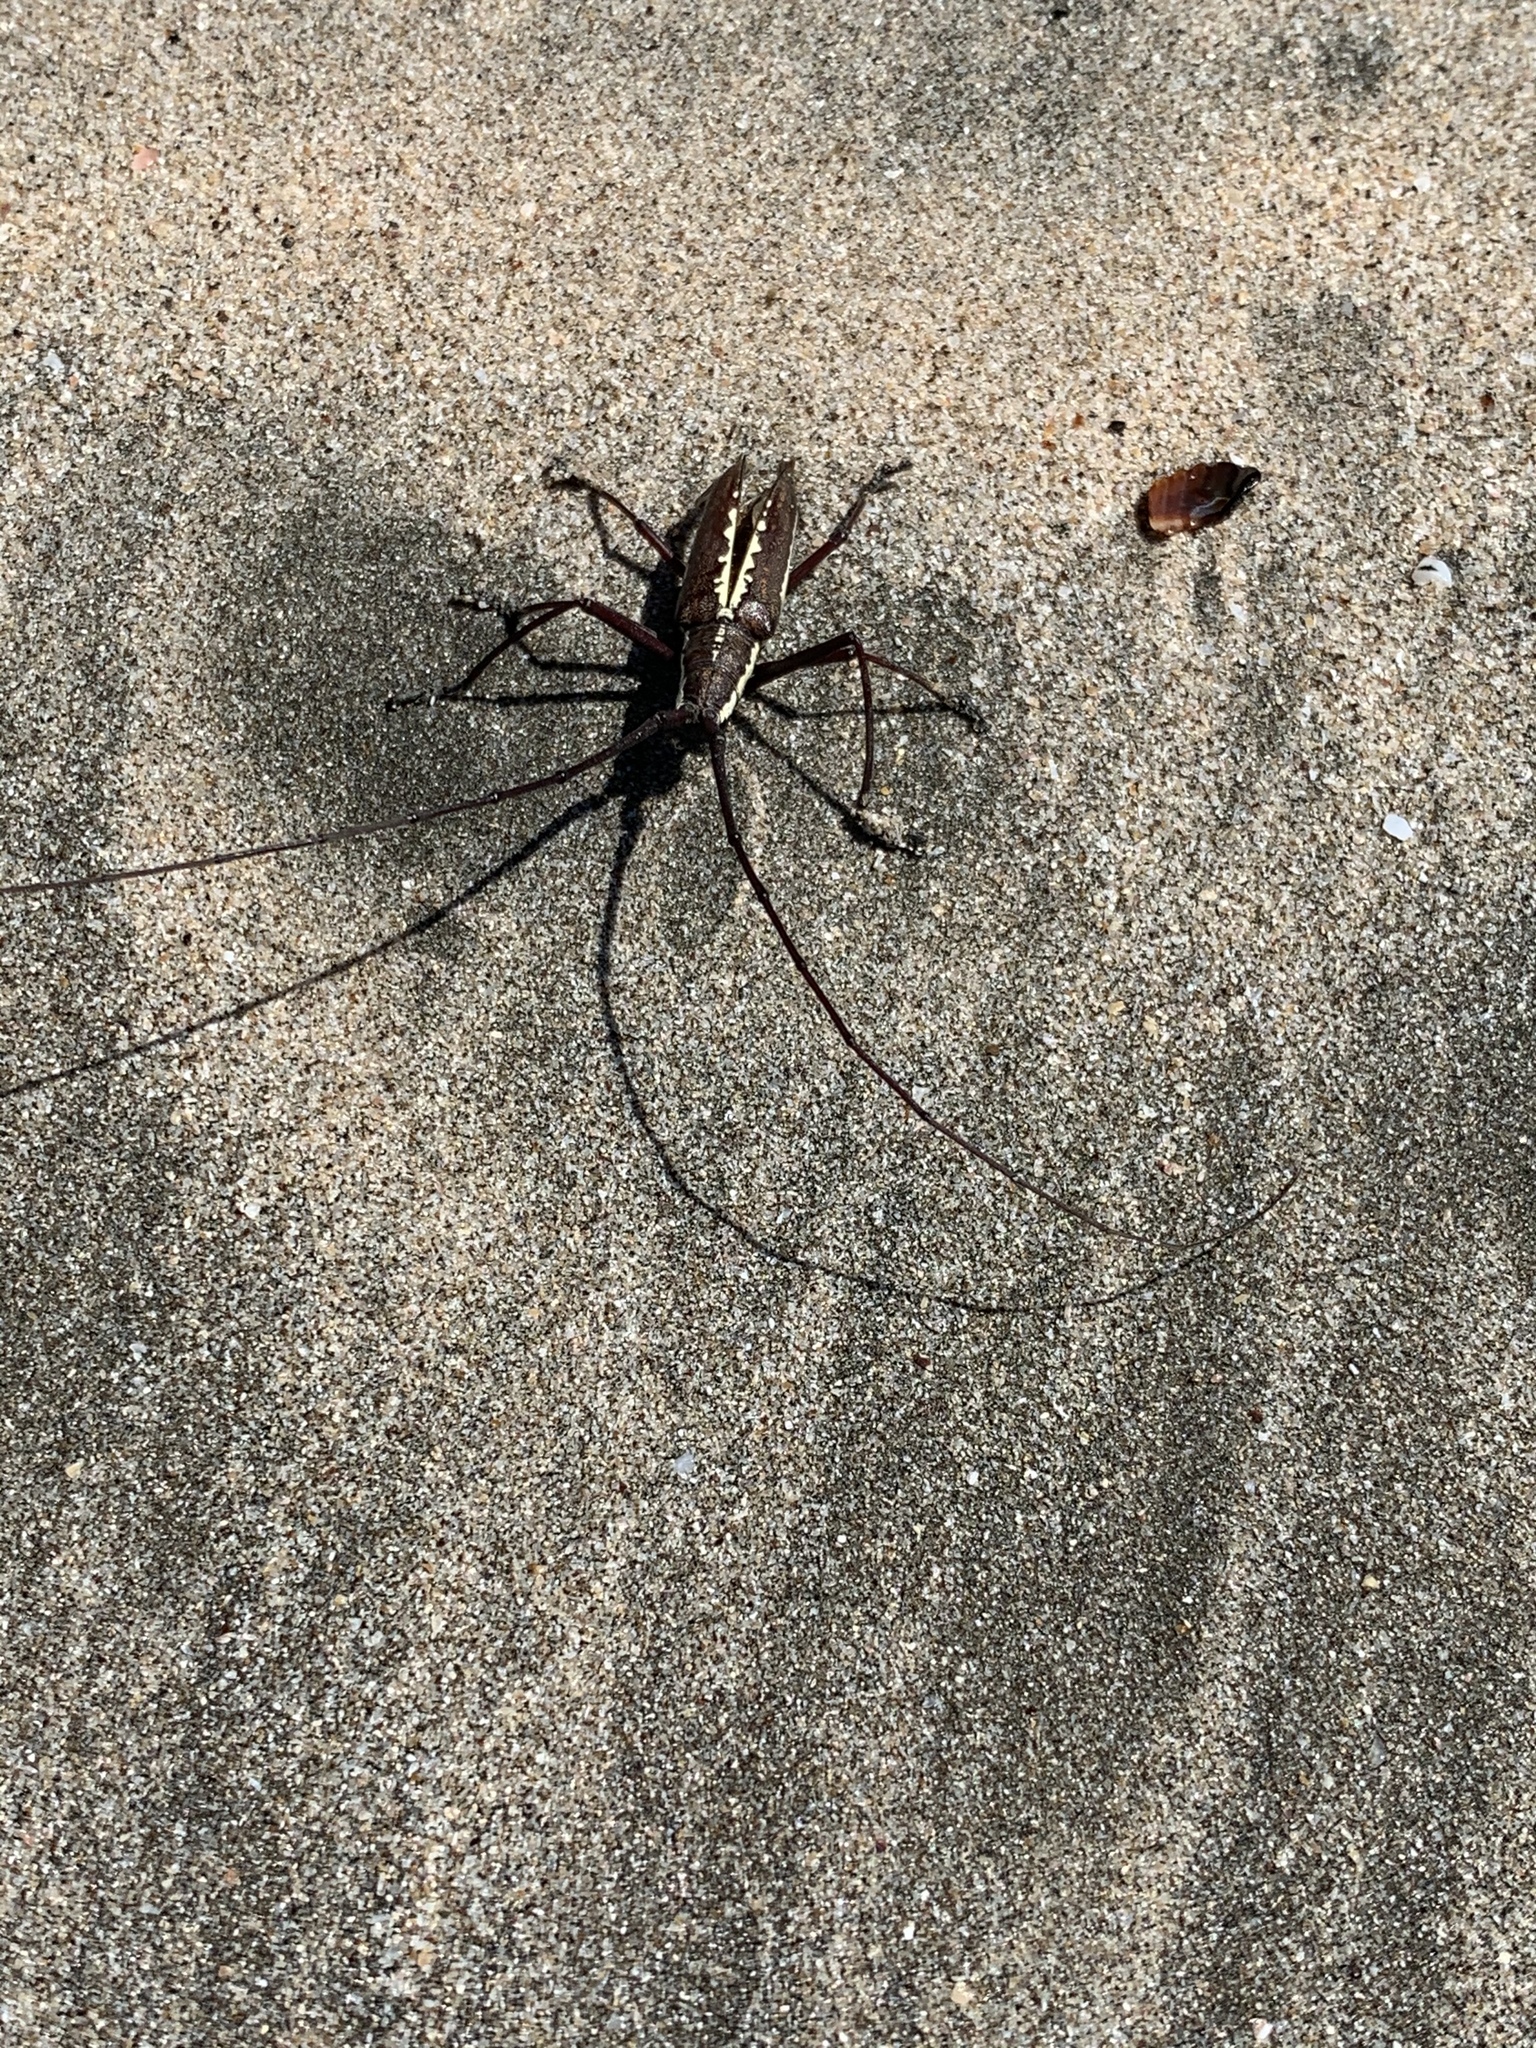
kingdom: Animalia
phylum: Arthropoda
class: Insecta
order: Coleoptera
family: Cerambycidae
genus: Neoptychodes
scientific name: Neoptychodes trilineatus
